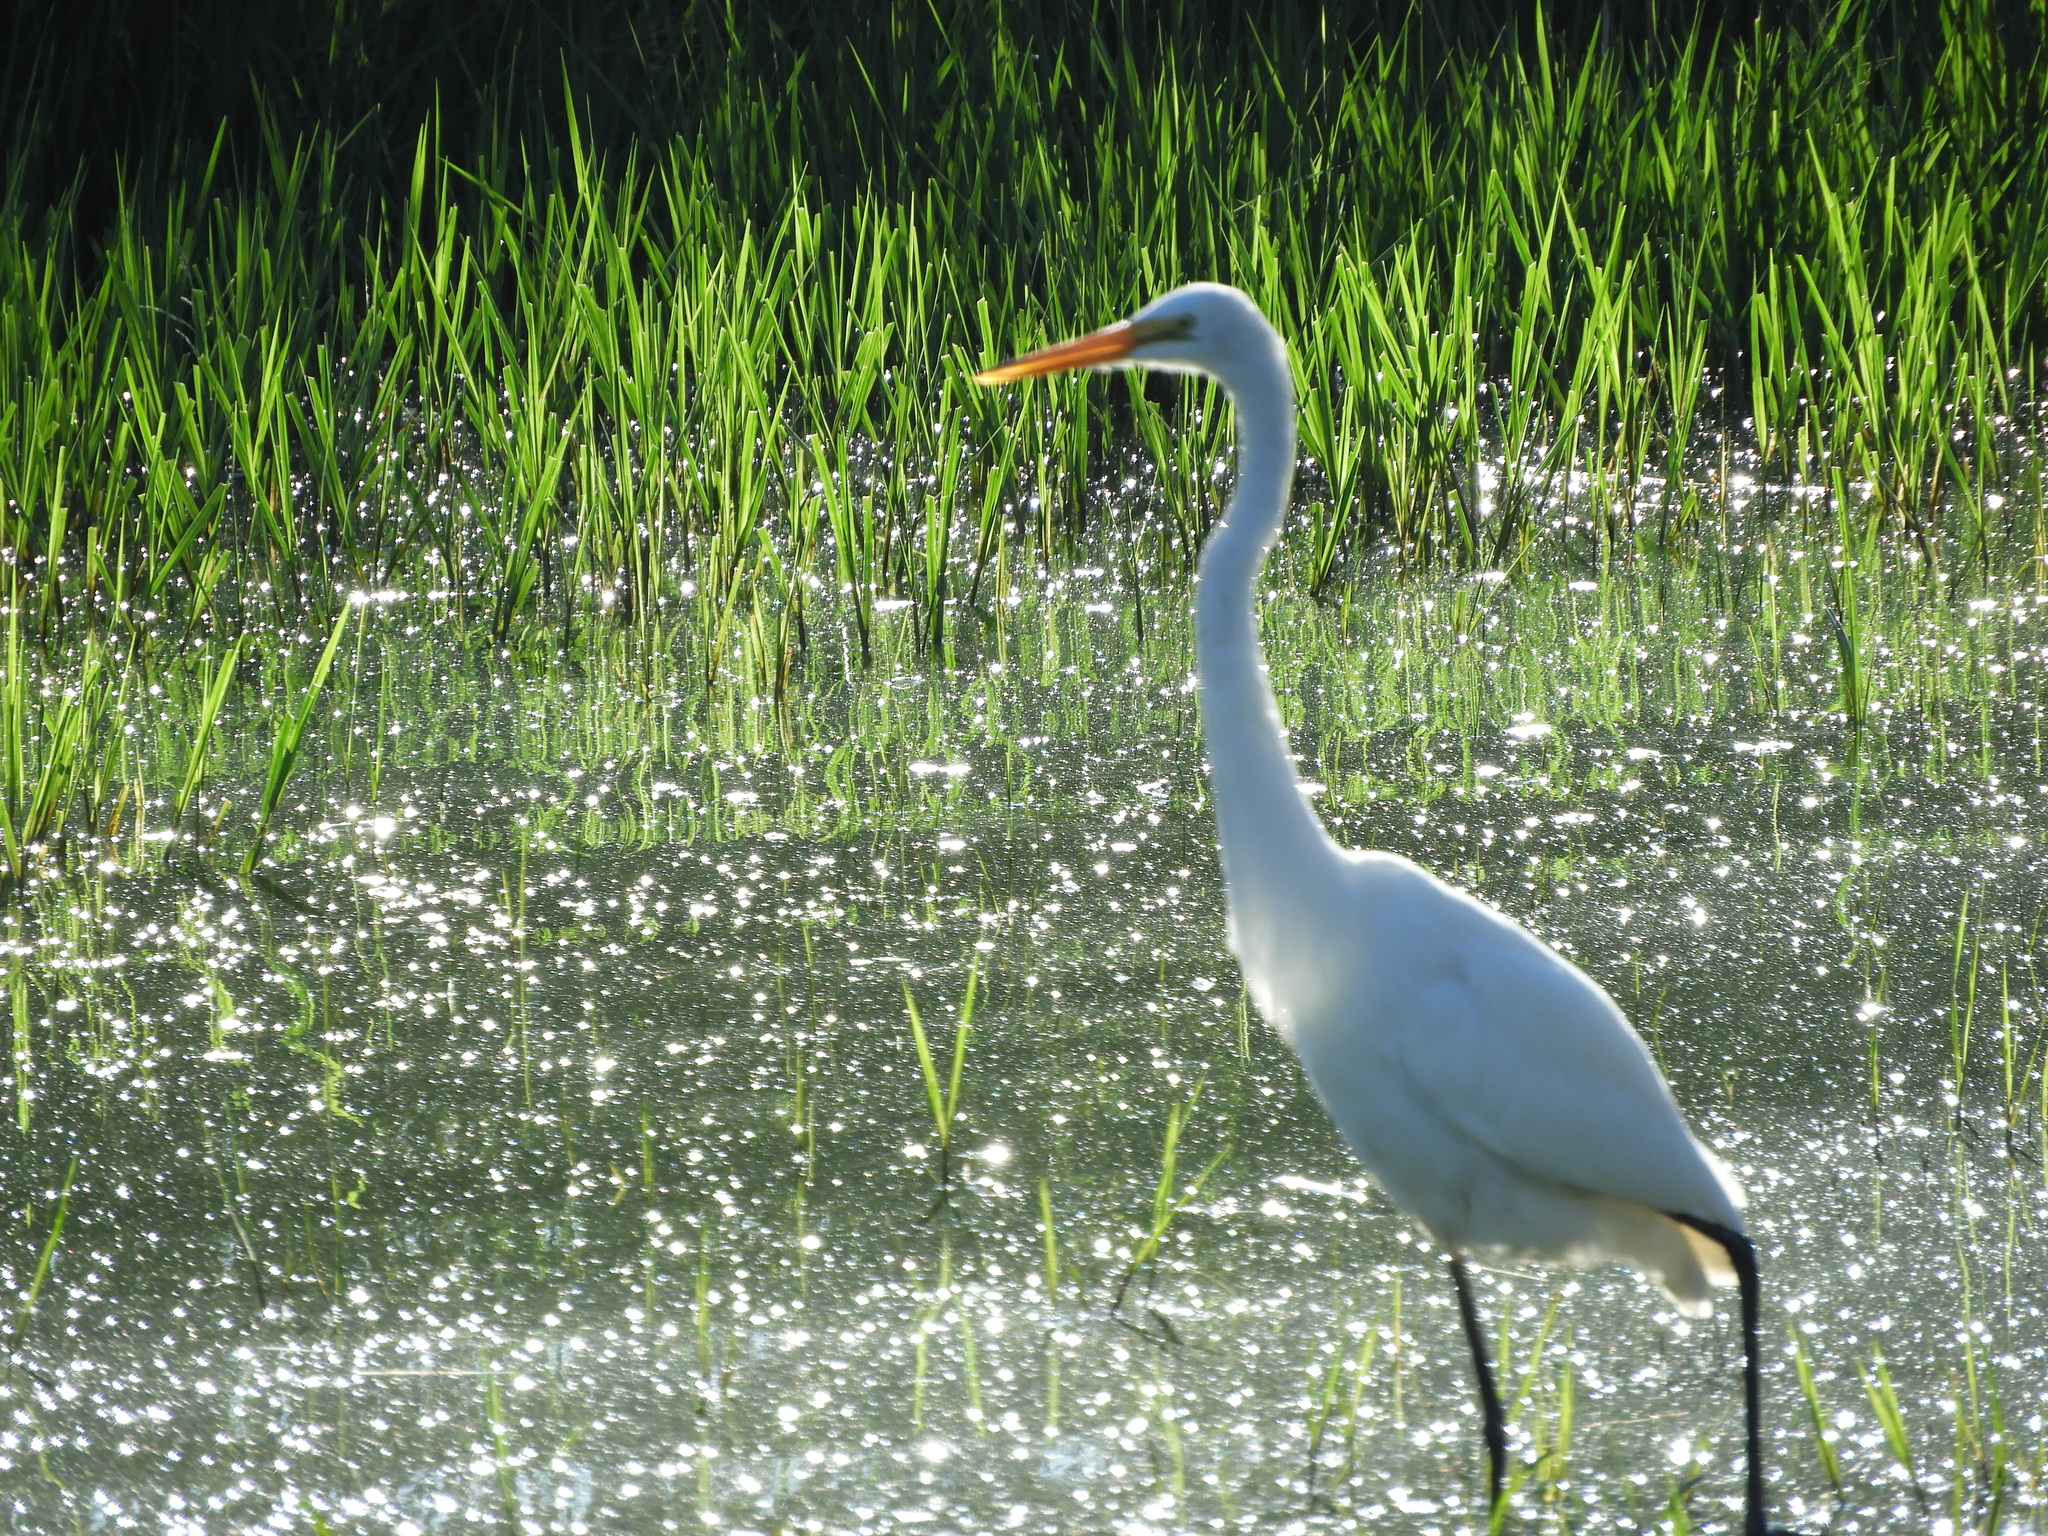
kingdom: Animalia
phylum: Chordata
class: Aves
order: Pelecaniformes
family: Ardeidae
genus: Ardea
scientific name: Ardea alba
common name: Great egret
